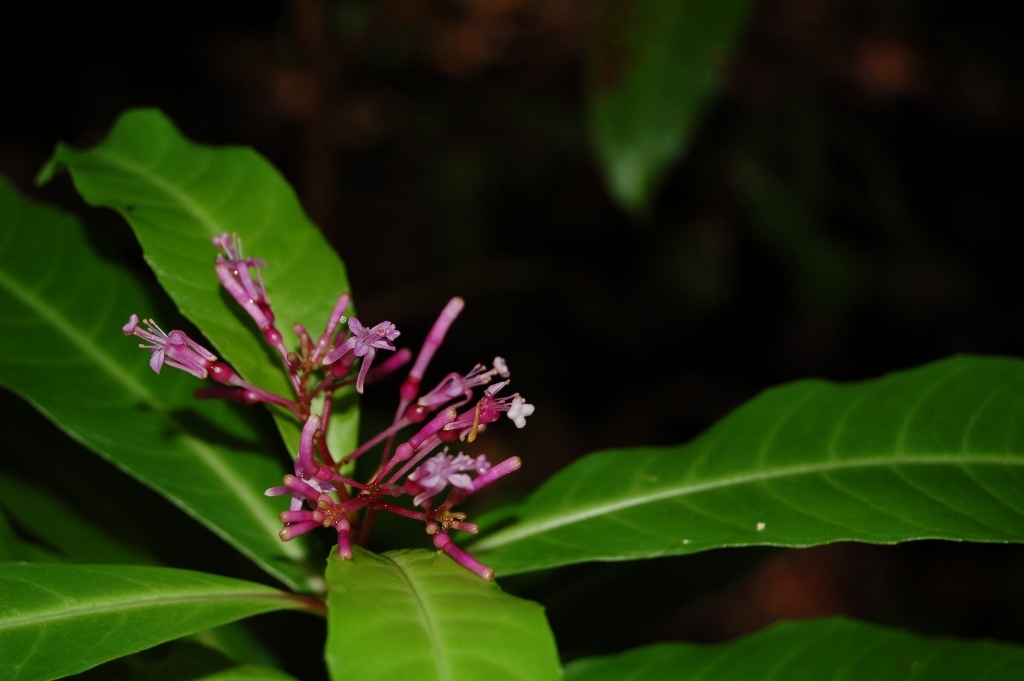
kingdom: Plantae
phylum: Tracheophyta
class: Magnoliopsida
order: Myrtales
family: Onagraceae
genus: Fuchsia
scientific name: Fuchsia paniculata
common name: Shrubby fuchsia
